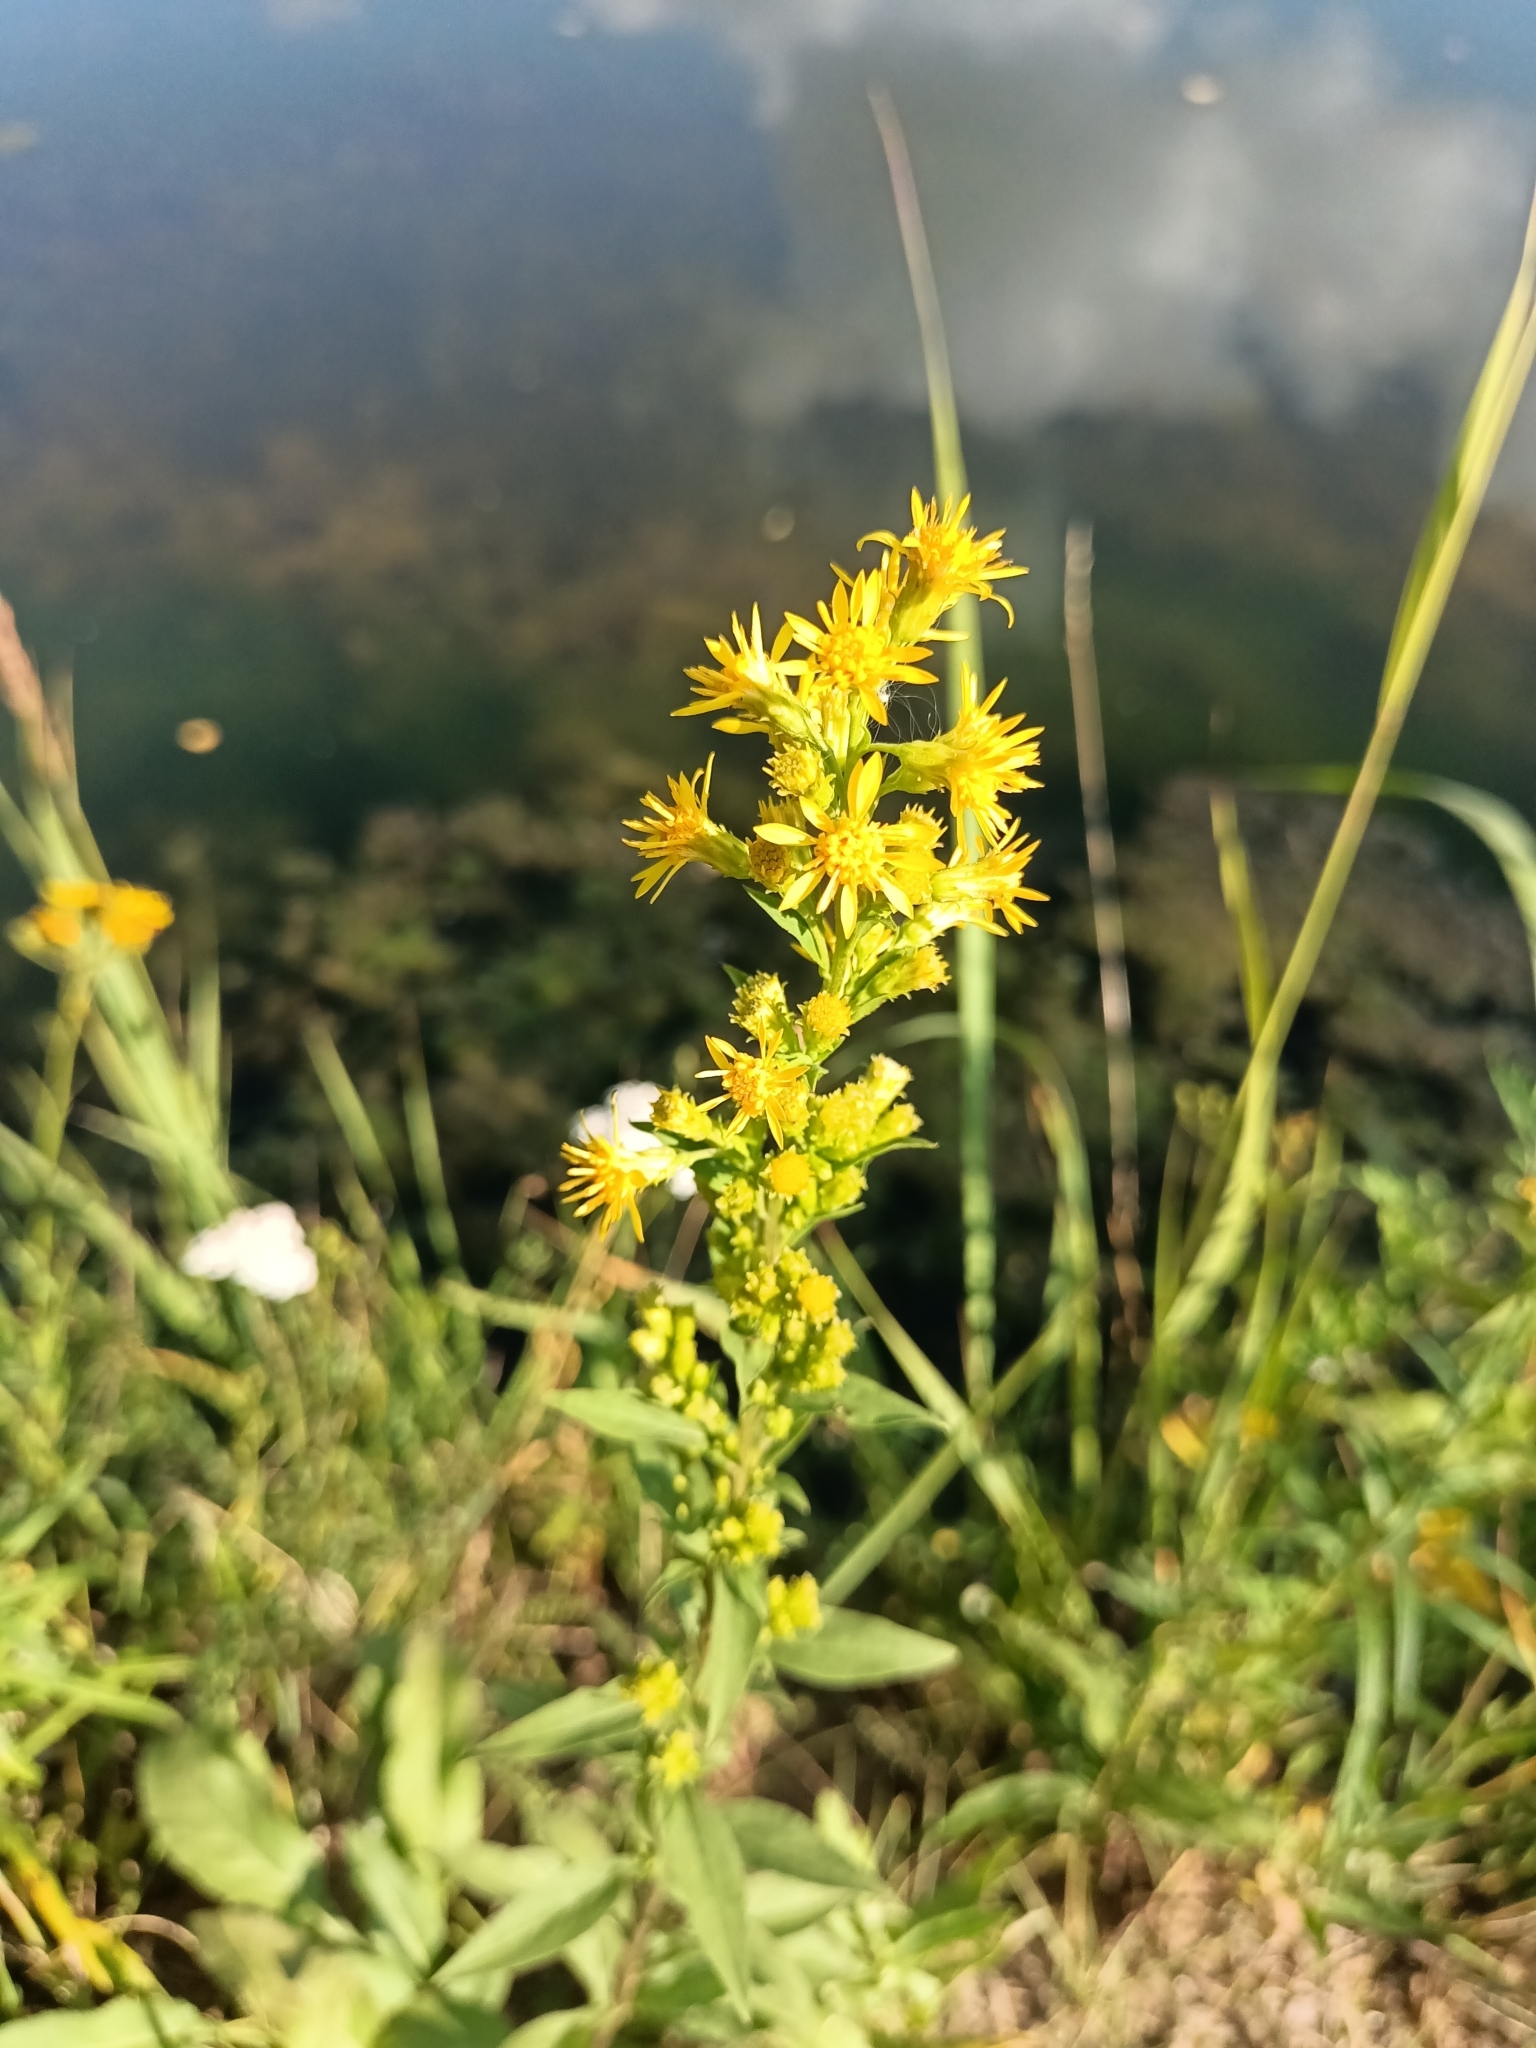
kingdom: Plantae
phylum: Tracheophyta
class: Magnoliopsida
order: Asterales
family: Asteraceae
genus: Solidago
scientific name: Solidago virgaurea
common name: Goldenrod
